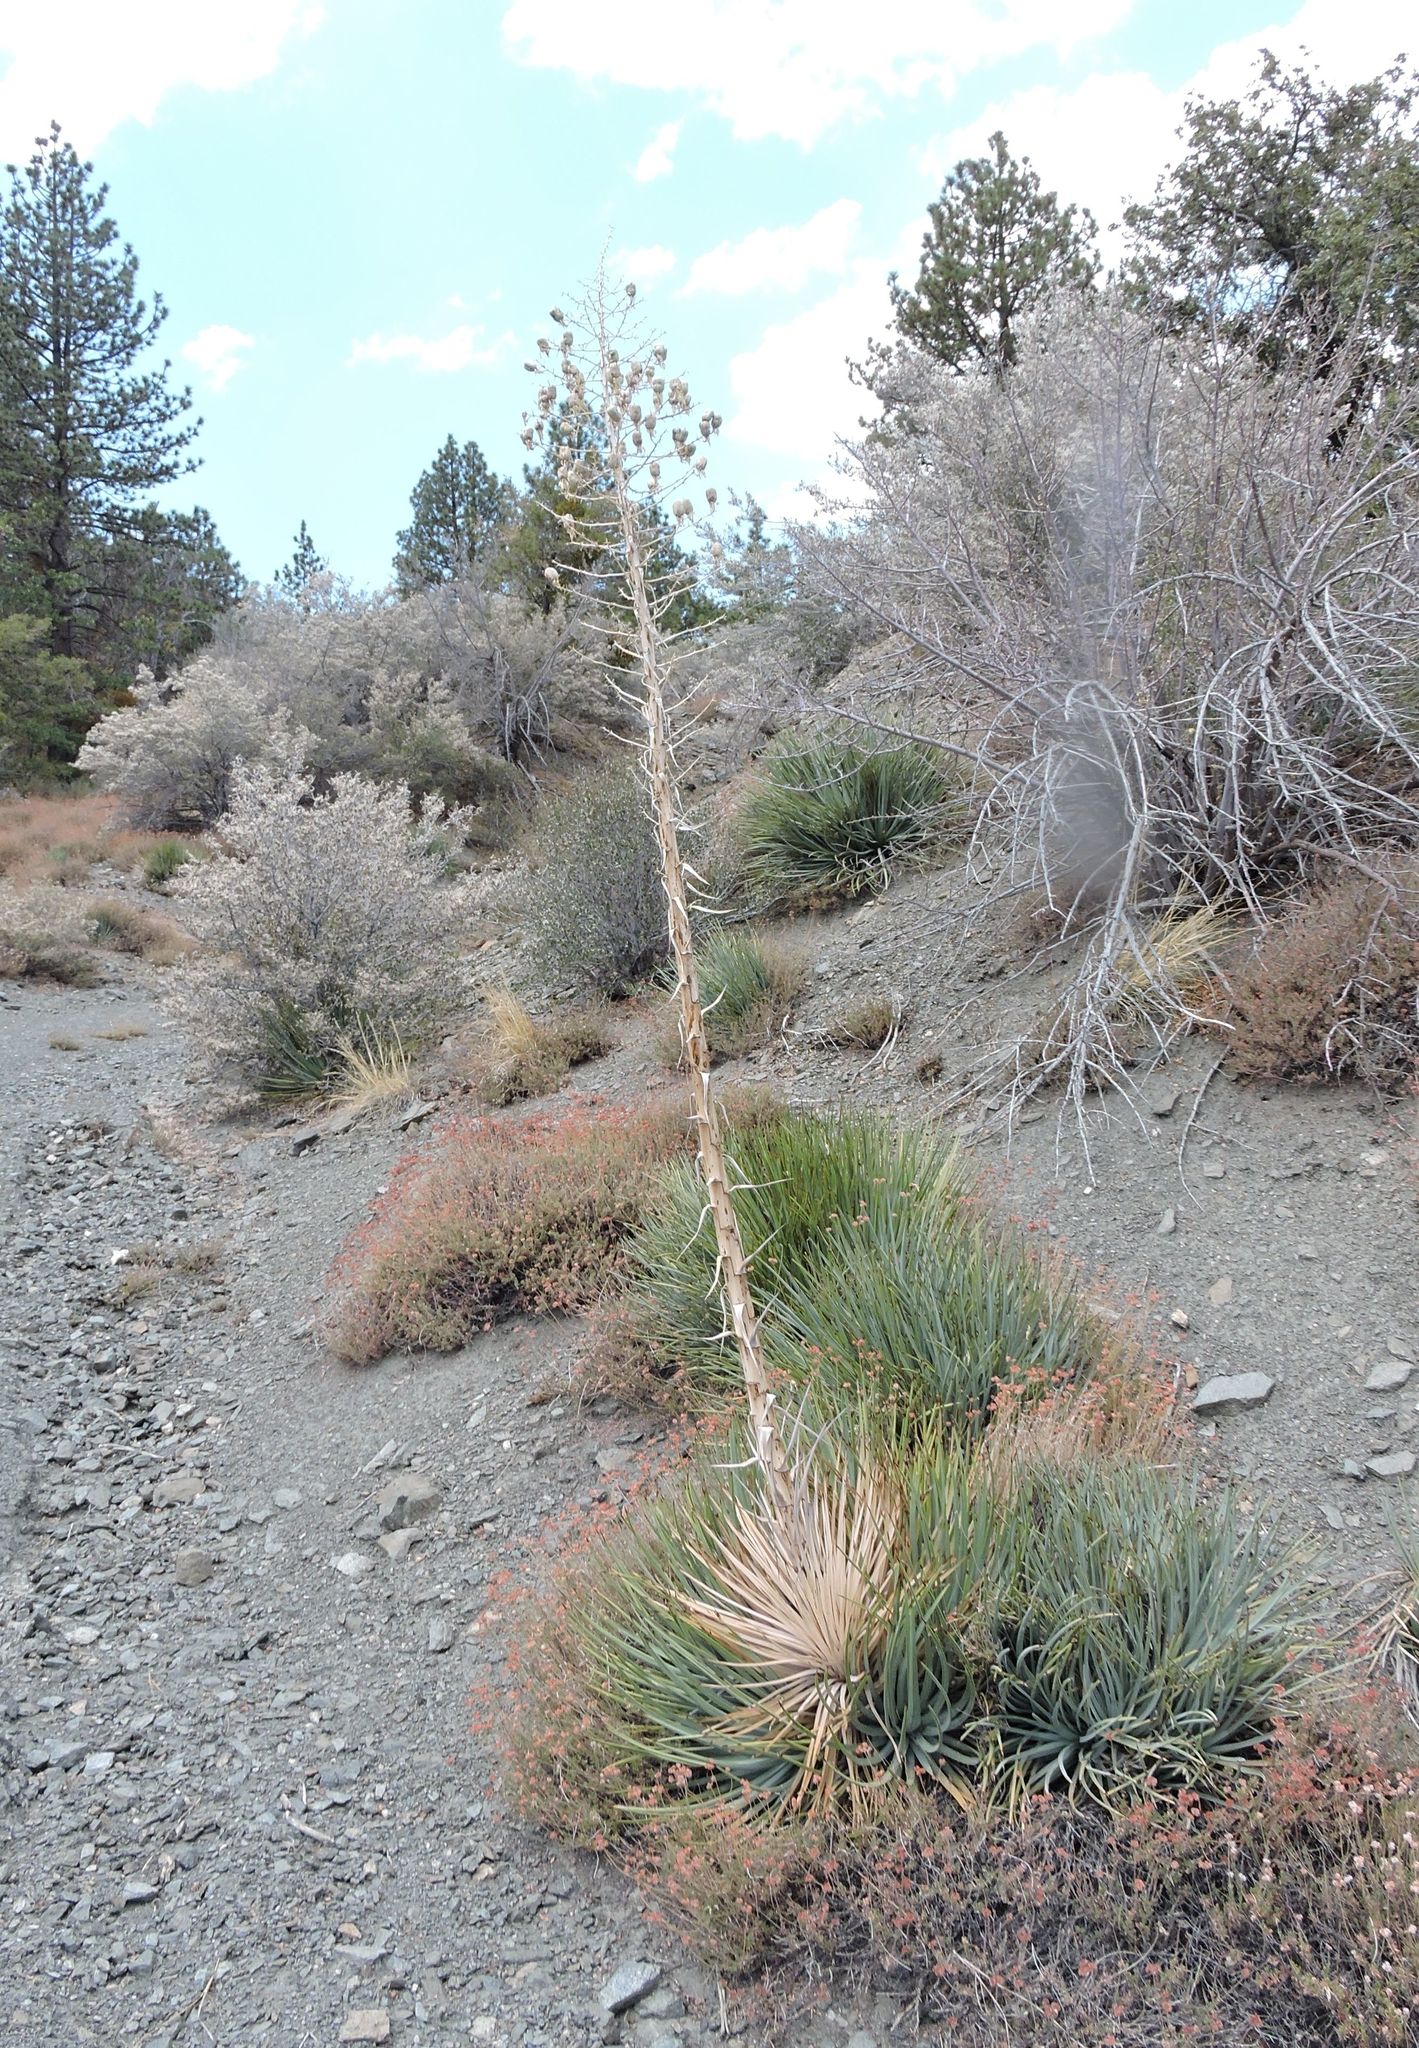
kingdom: Plantae
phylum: Tracheophyta
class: Liliopsida
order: Asparagales
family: Asparagaceae
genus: Hesperoyucca
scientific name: Hesperoyucca whipplei
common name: Our lord's-candle
